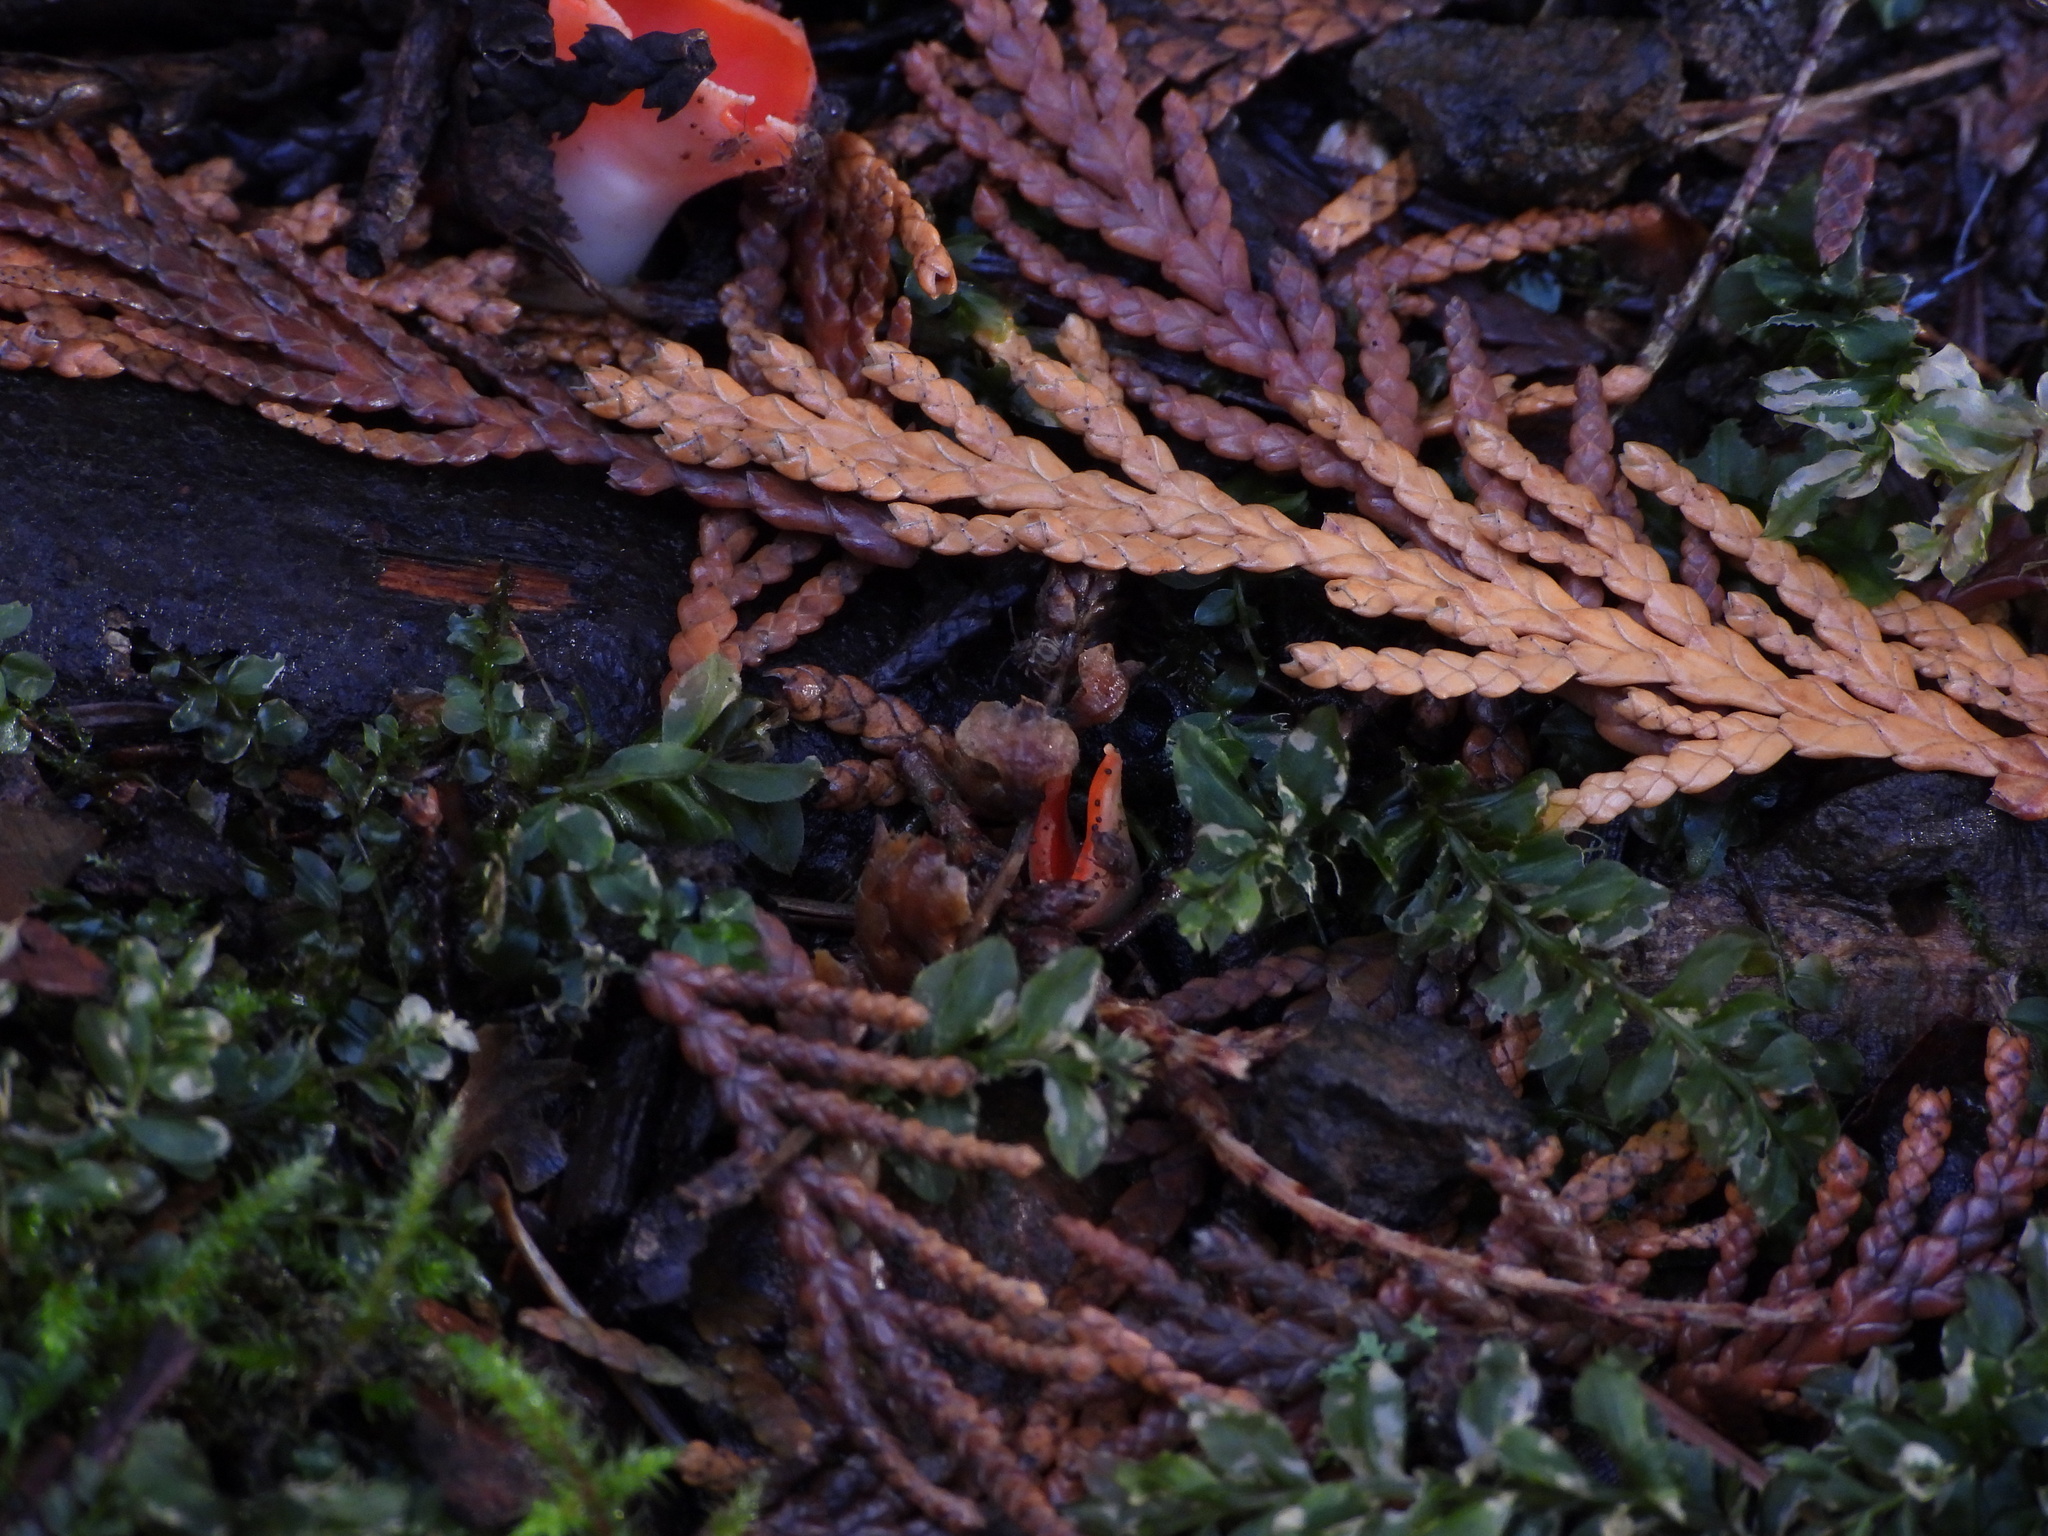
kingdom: Fungi
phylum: Ascomycota
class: Pezizomycetes
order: Pezizales
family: Sarcoscyphaceae
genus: Sarcoscypha
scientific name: Sarcoscypha coccinea
